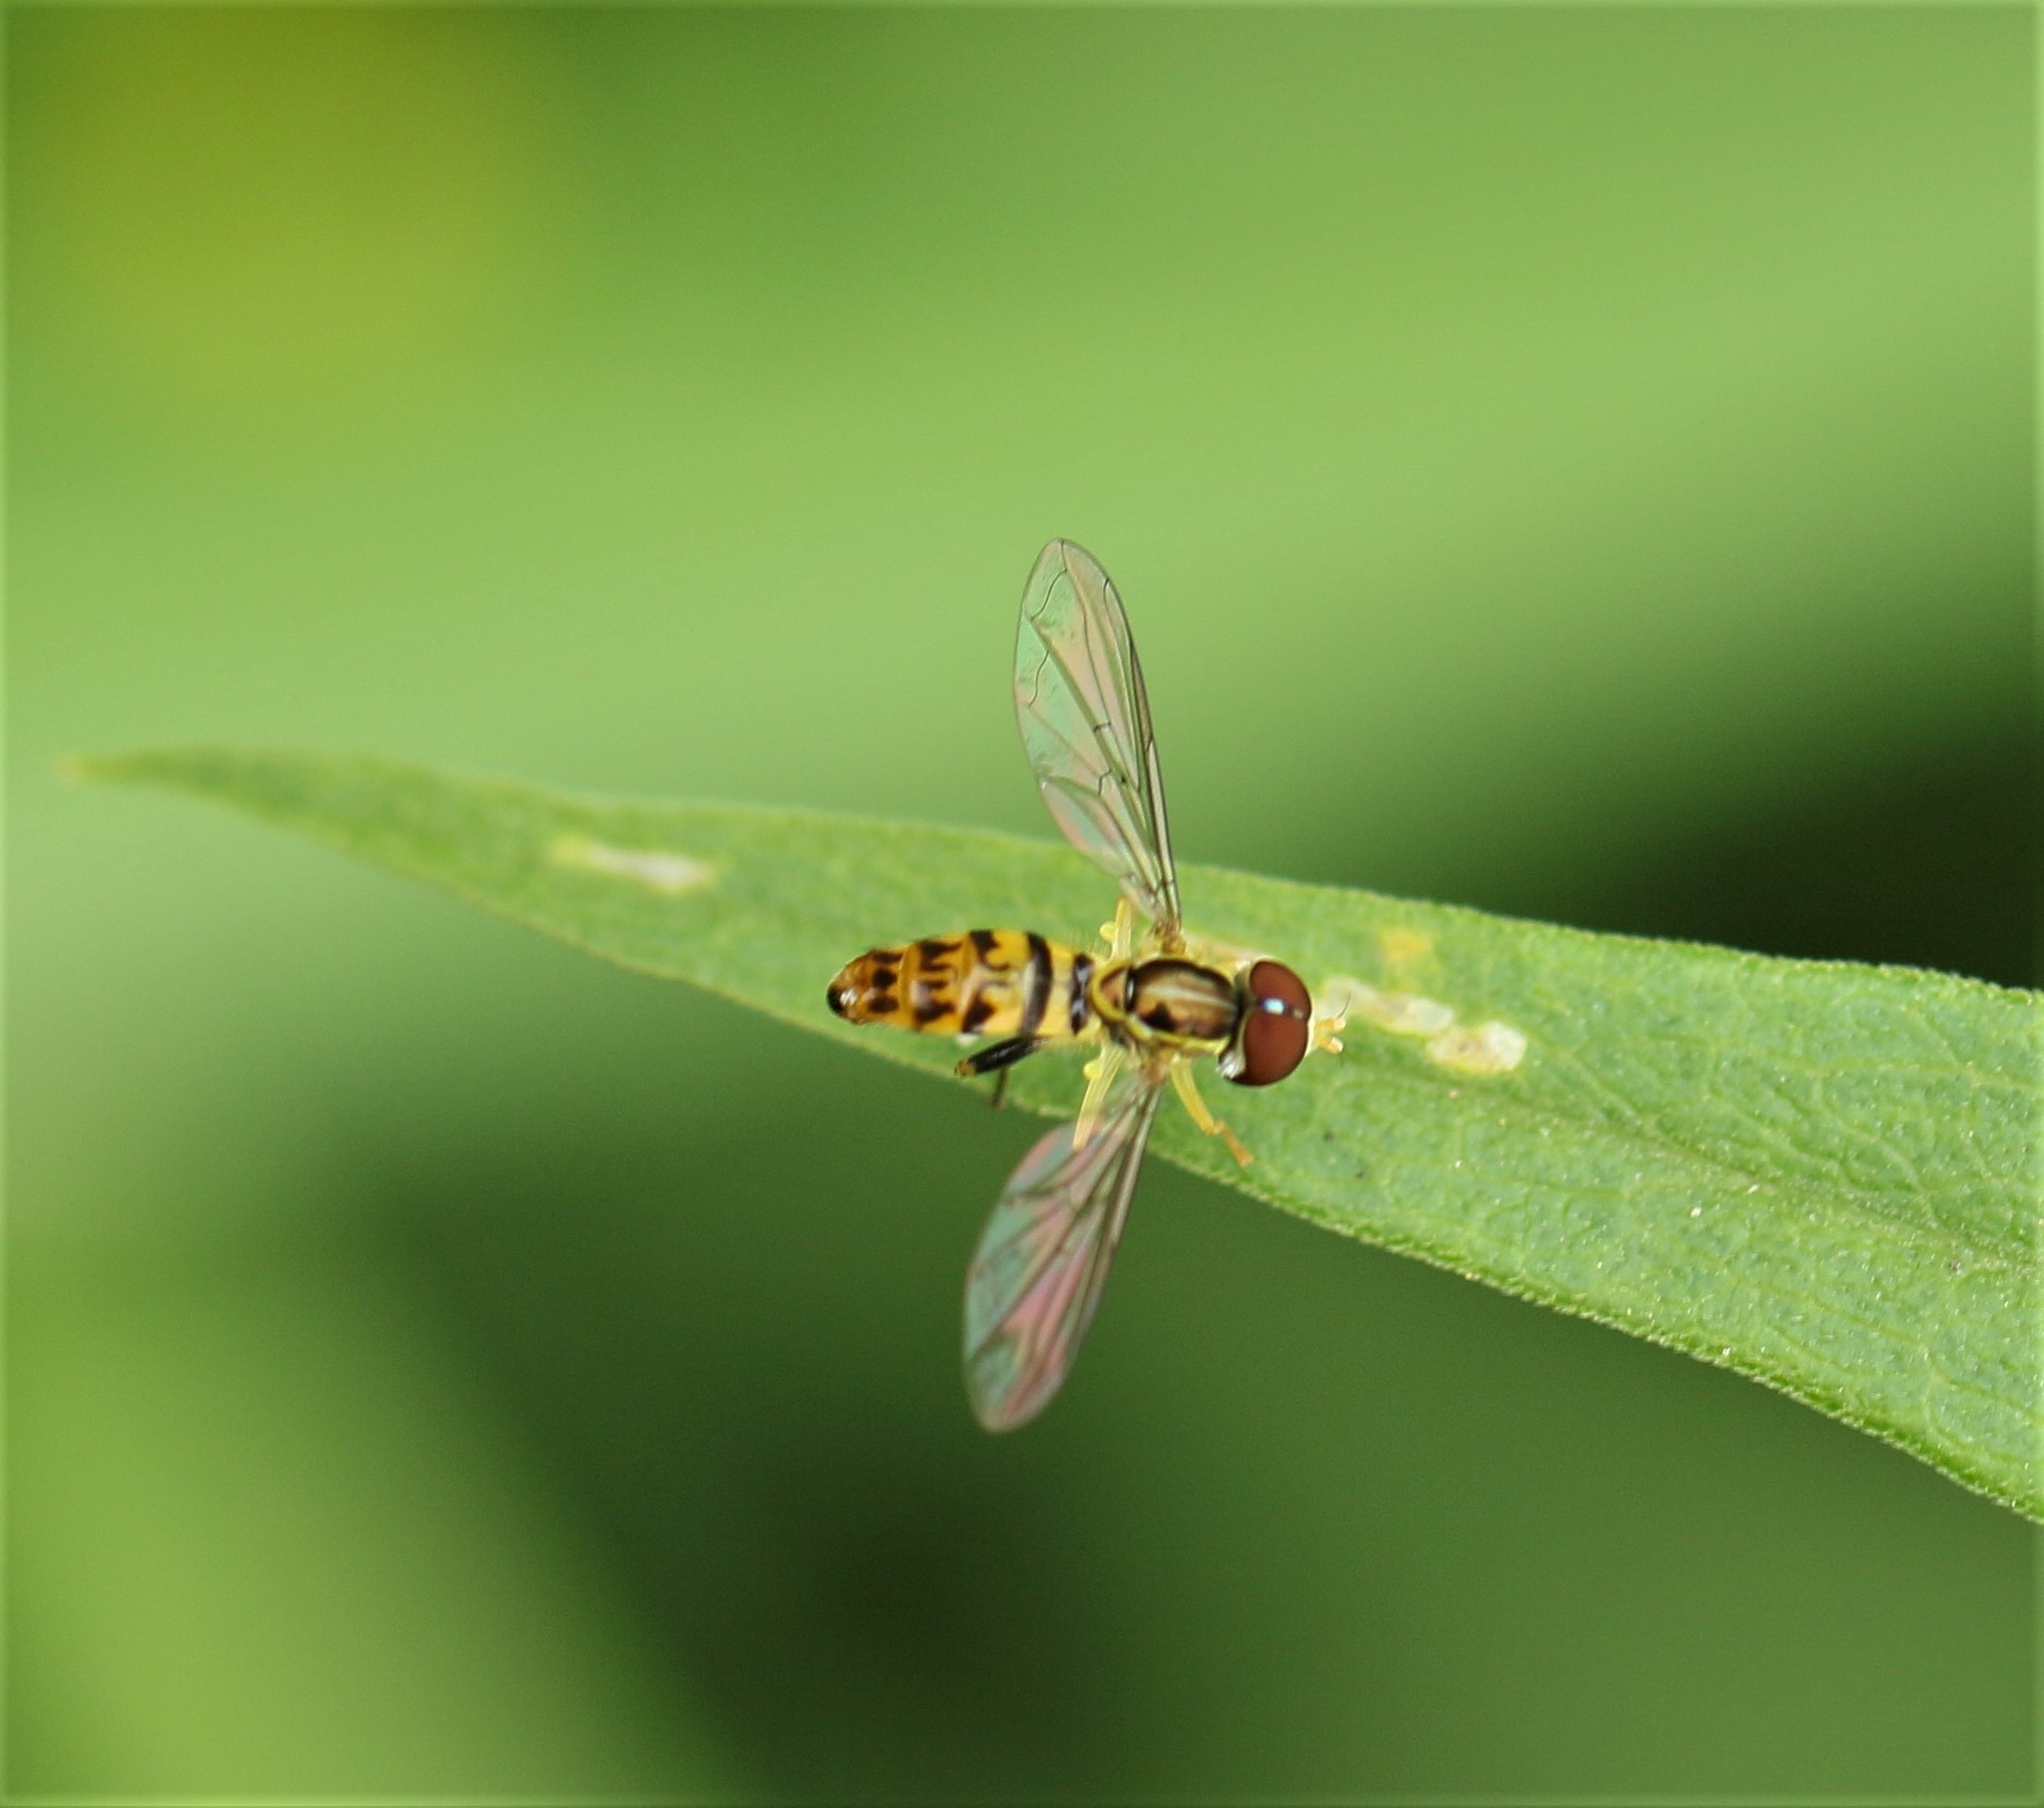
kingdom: Animalia
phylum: Arthropoda
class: Insecta
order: Diptera
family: Syrphidae
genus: Toxomerus
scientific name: Toxomerus geminatus
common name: Eastern calligrapher
